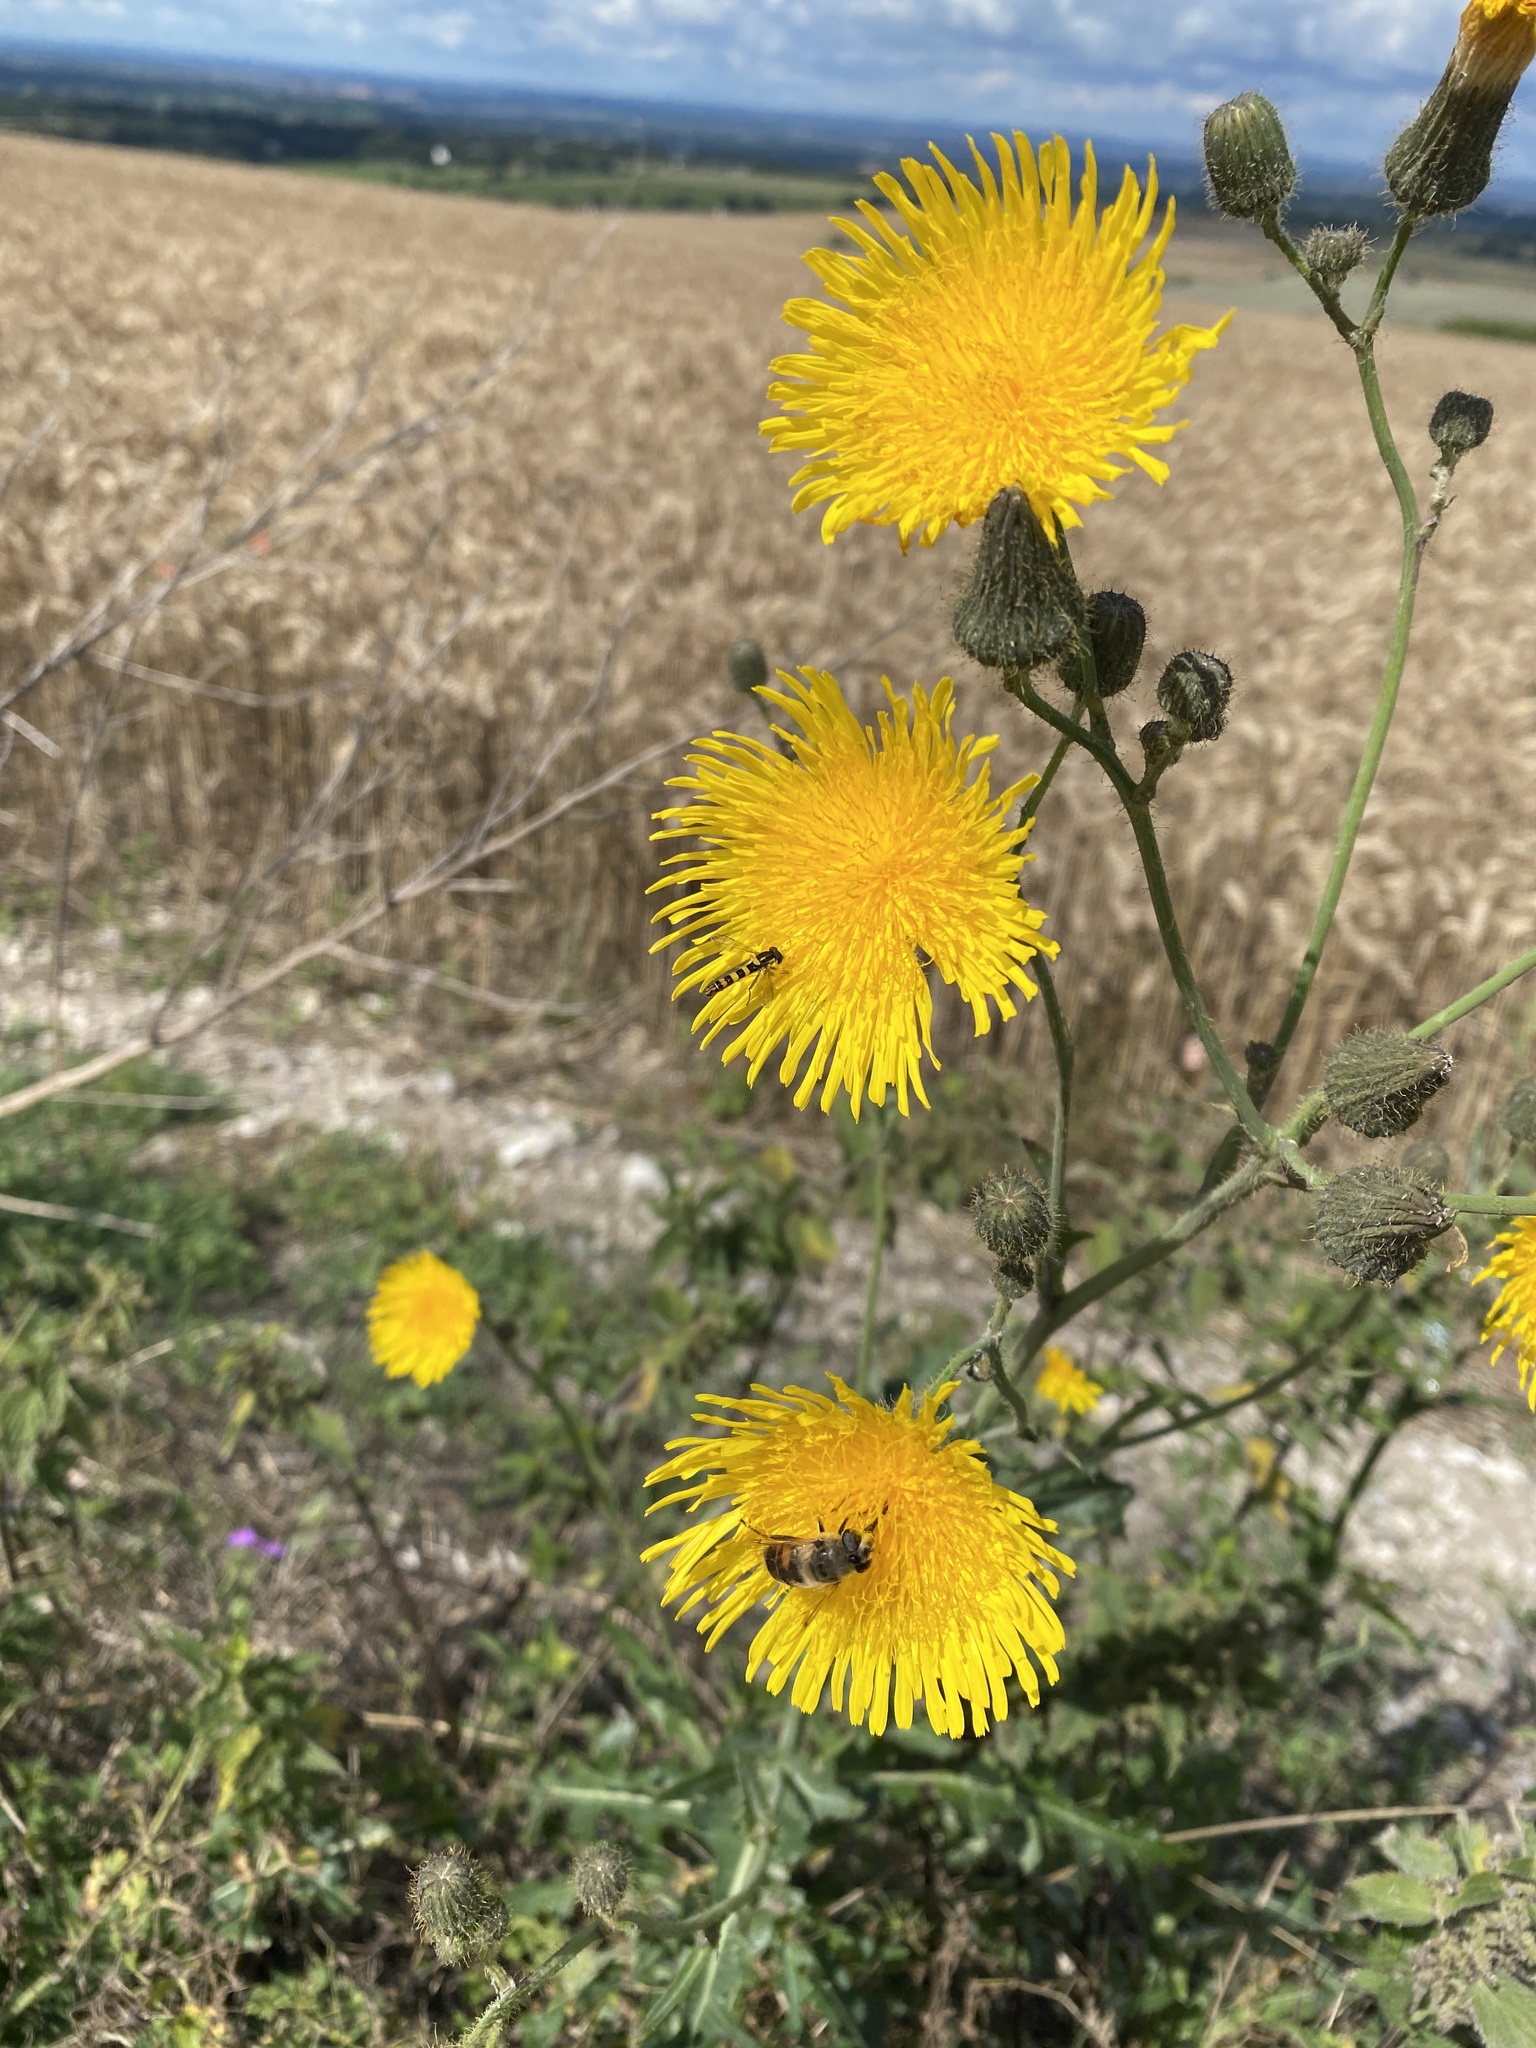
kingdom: Plantae
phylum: Tracheophyta
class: Magnoliopsida
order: Asterales
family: Asteraceae
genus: Sonchus
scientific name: Sonchus arvensis
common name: Perennial sow-thistle
